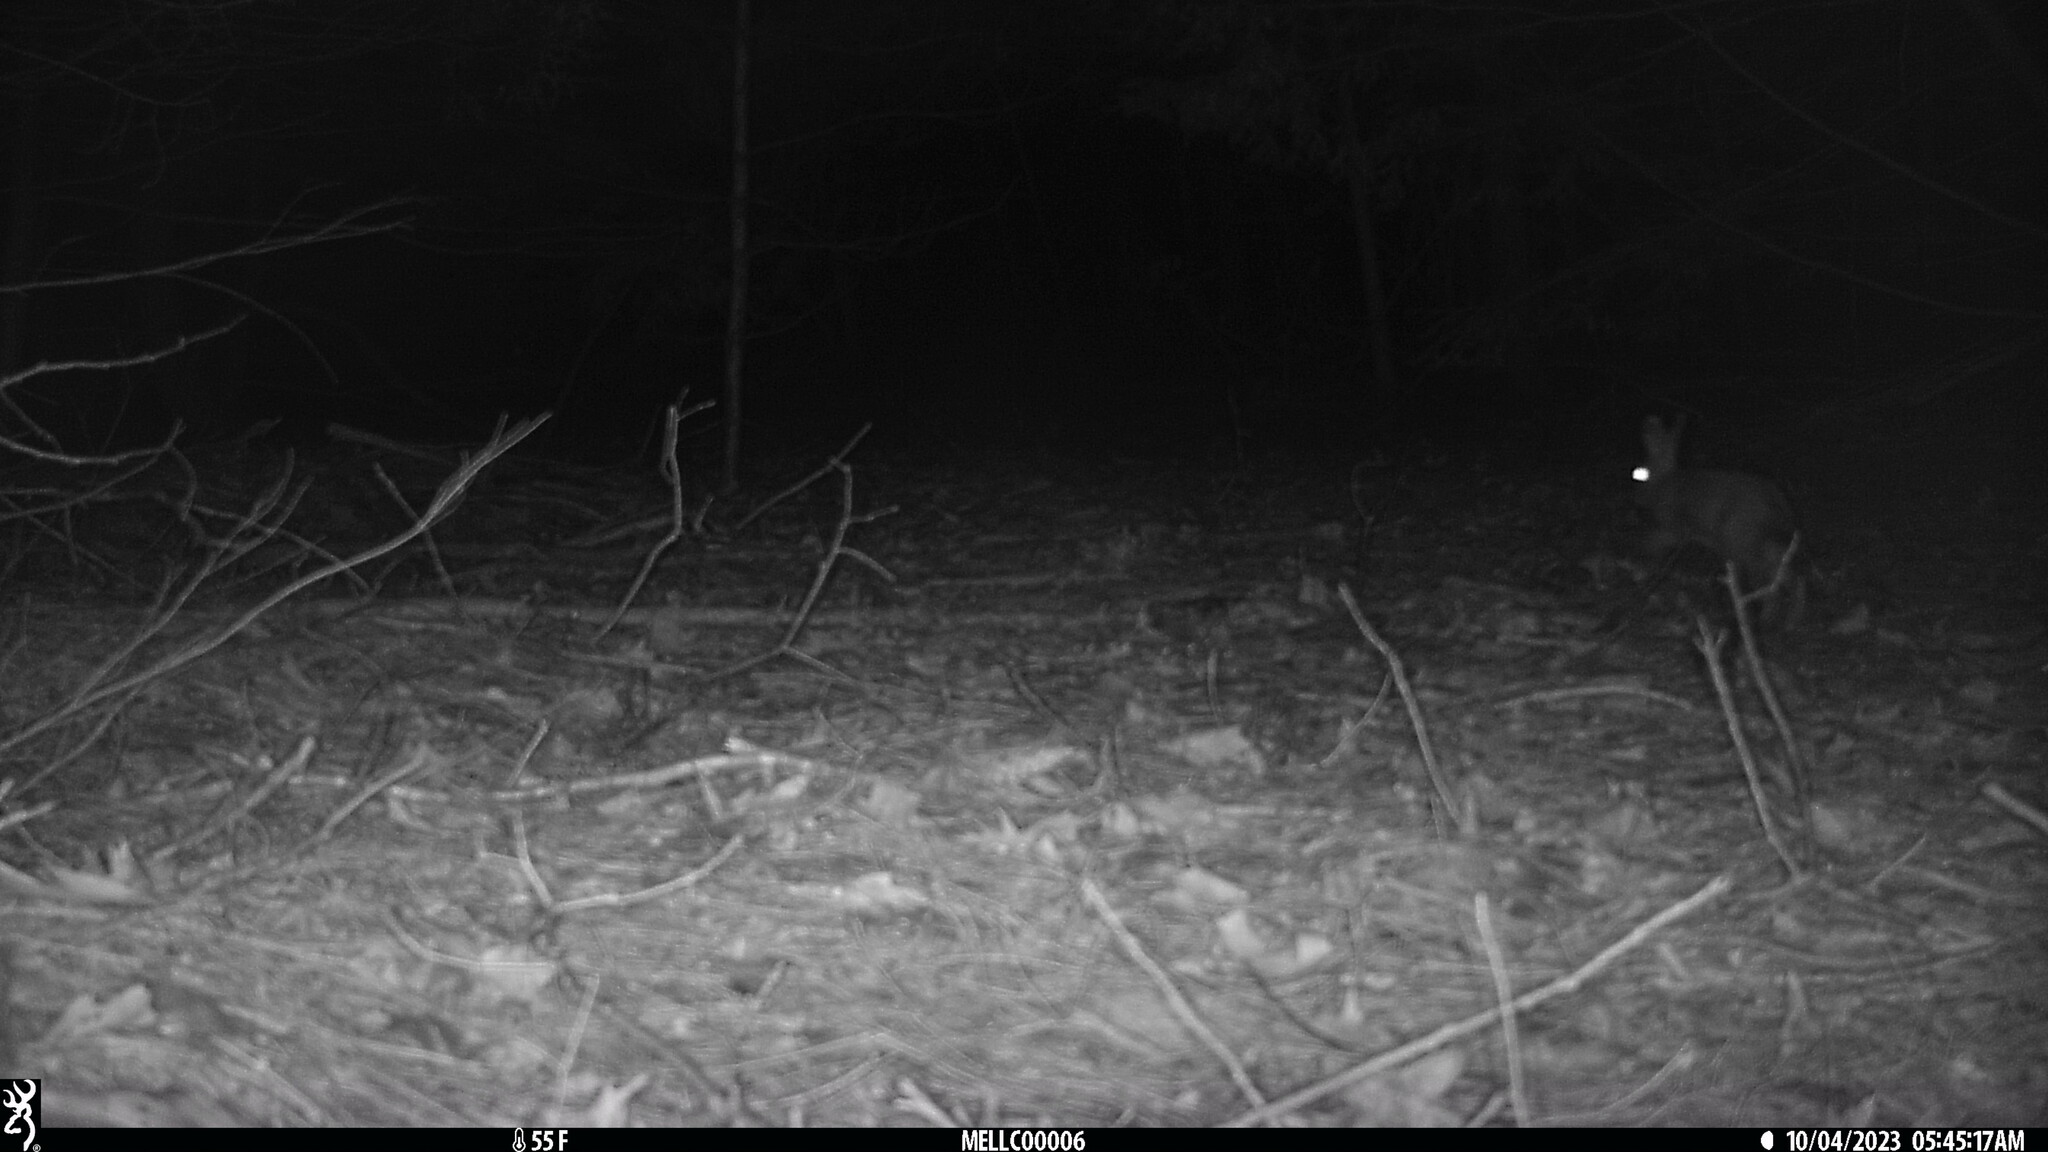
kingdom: Animalia
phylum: Chordata
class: Mammalia
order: Lagomorpha
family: Leporidae
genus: Sylvilagus
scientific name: Sylvilagus floridanus
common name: Eastern cottontail
